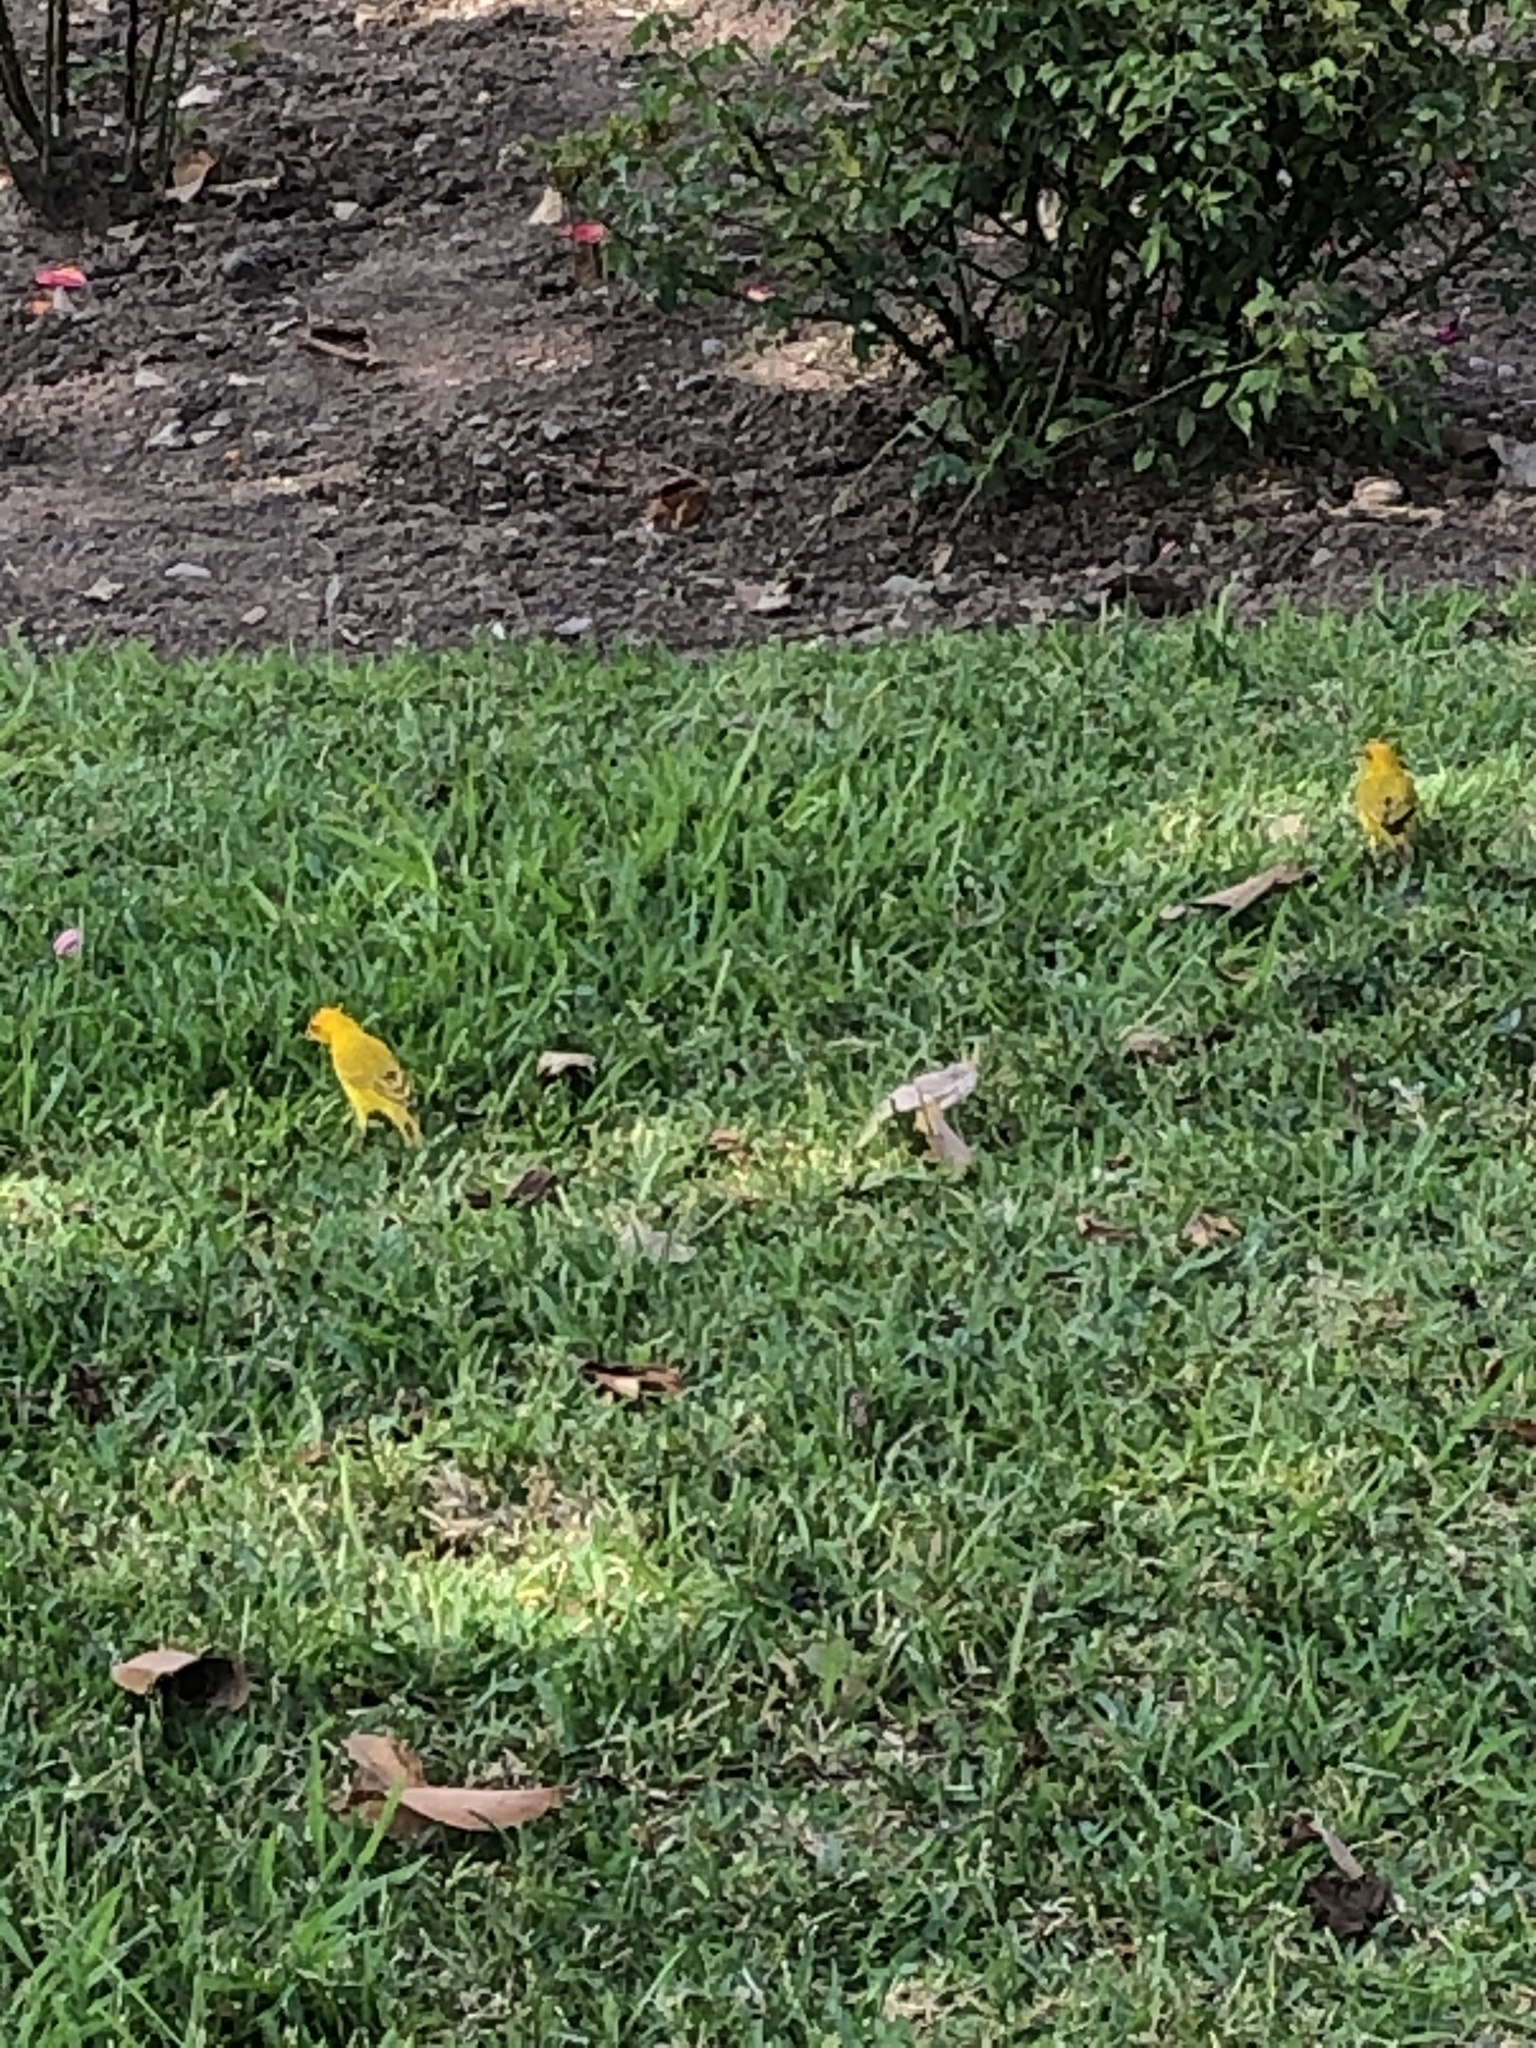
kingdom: Animalia
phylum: Chordata
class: Aves
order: Passeriformes
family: Thraupidae
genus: Sicalis
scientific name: Sicalis flaveola
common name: Saffron finch
